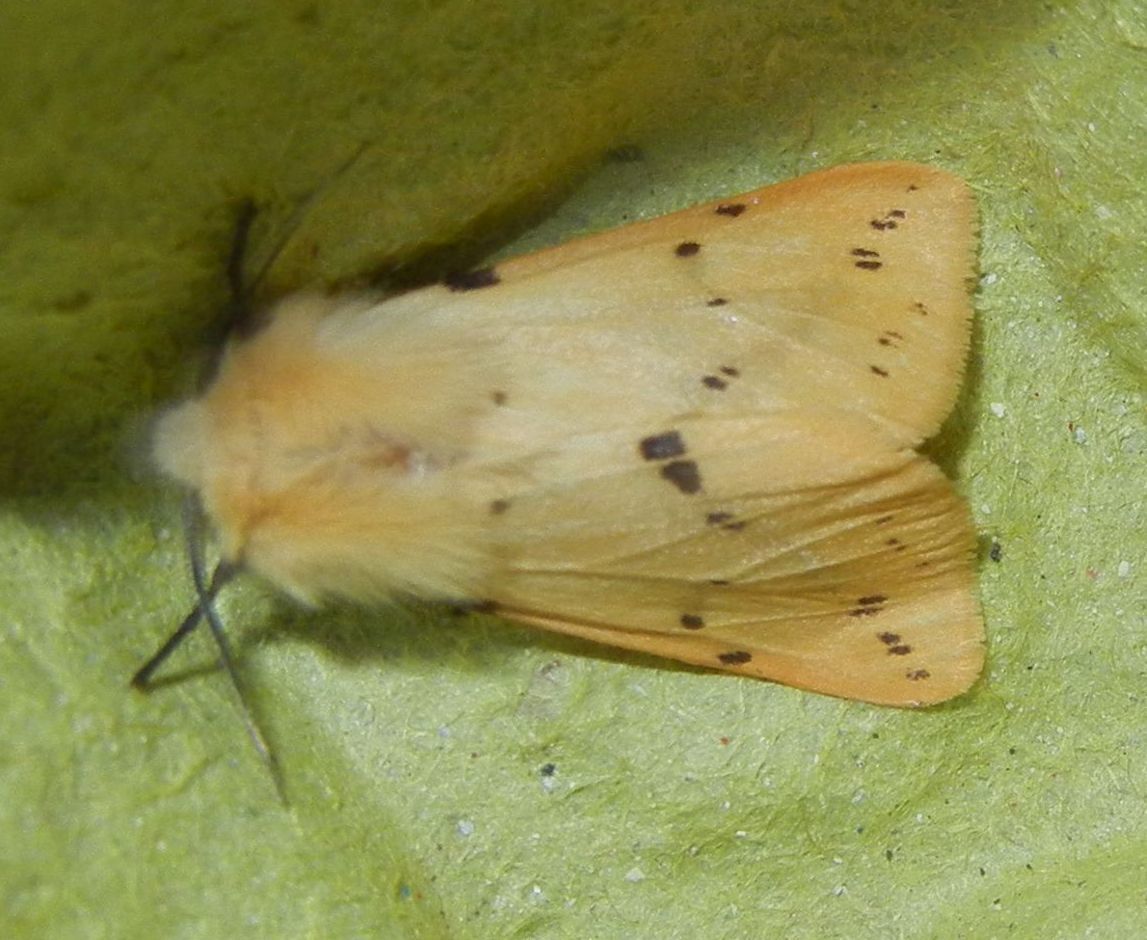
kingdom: Animalia
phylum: Arthropoda
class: Insecta
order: Lepidoptera
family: Erebidae
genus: Spilarctia
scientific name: Spilarctia lutea
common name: Buff ermine
